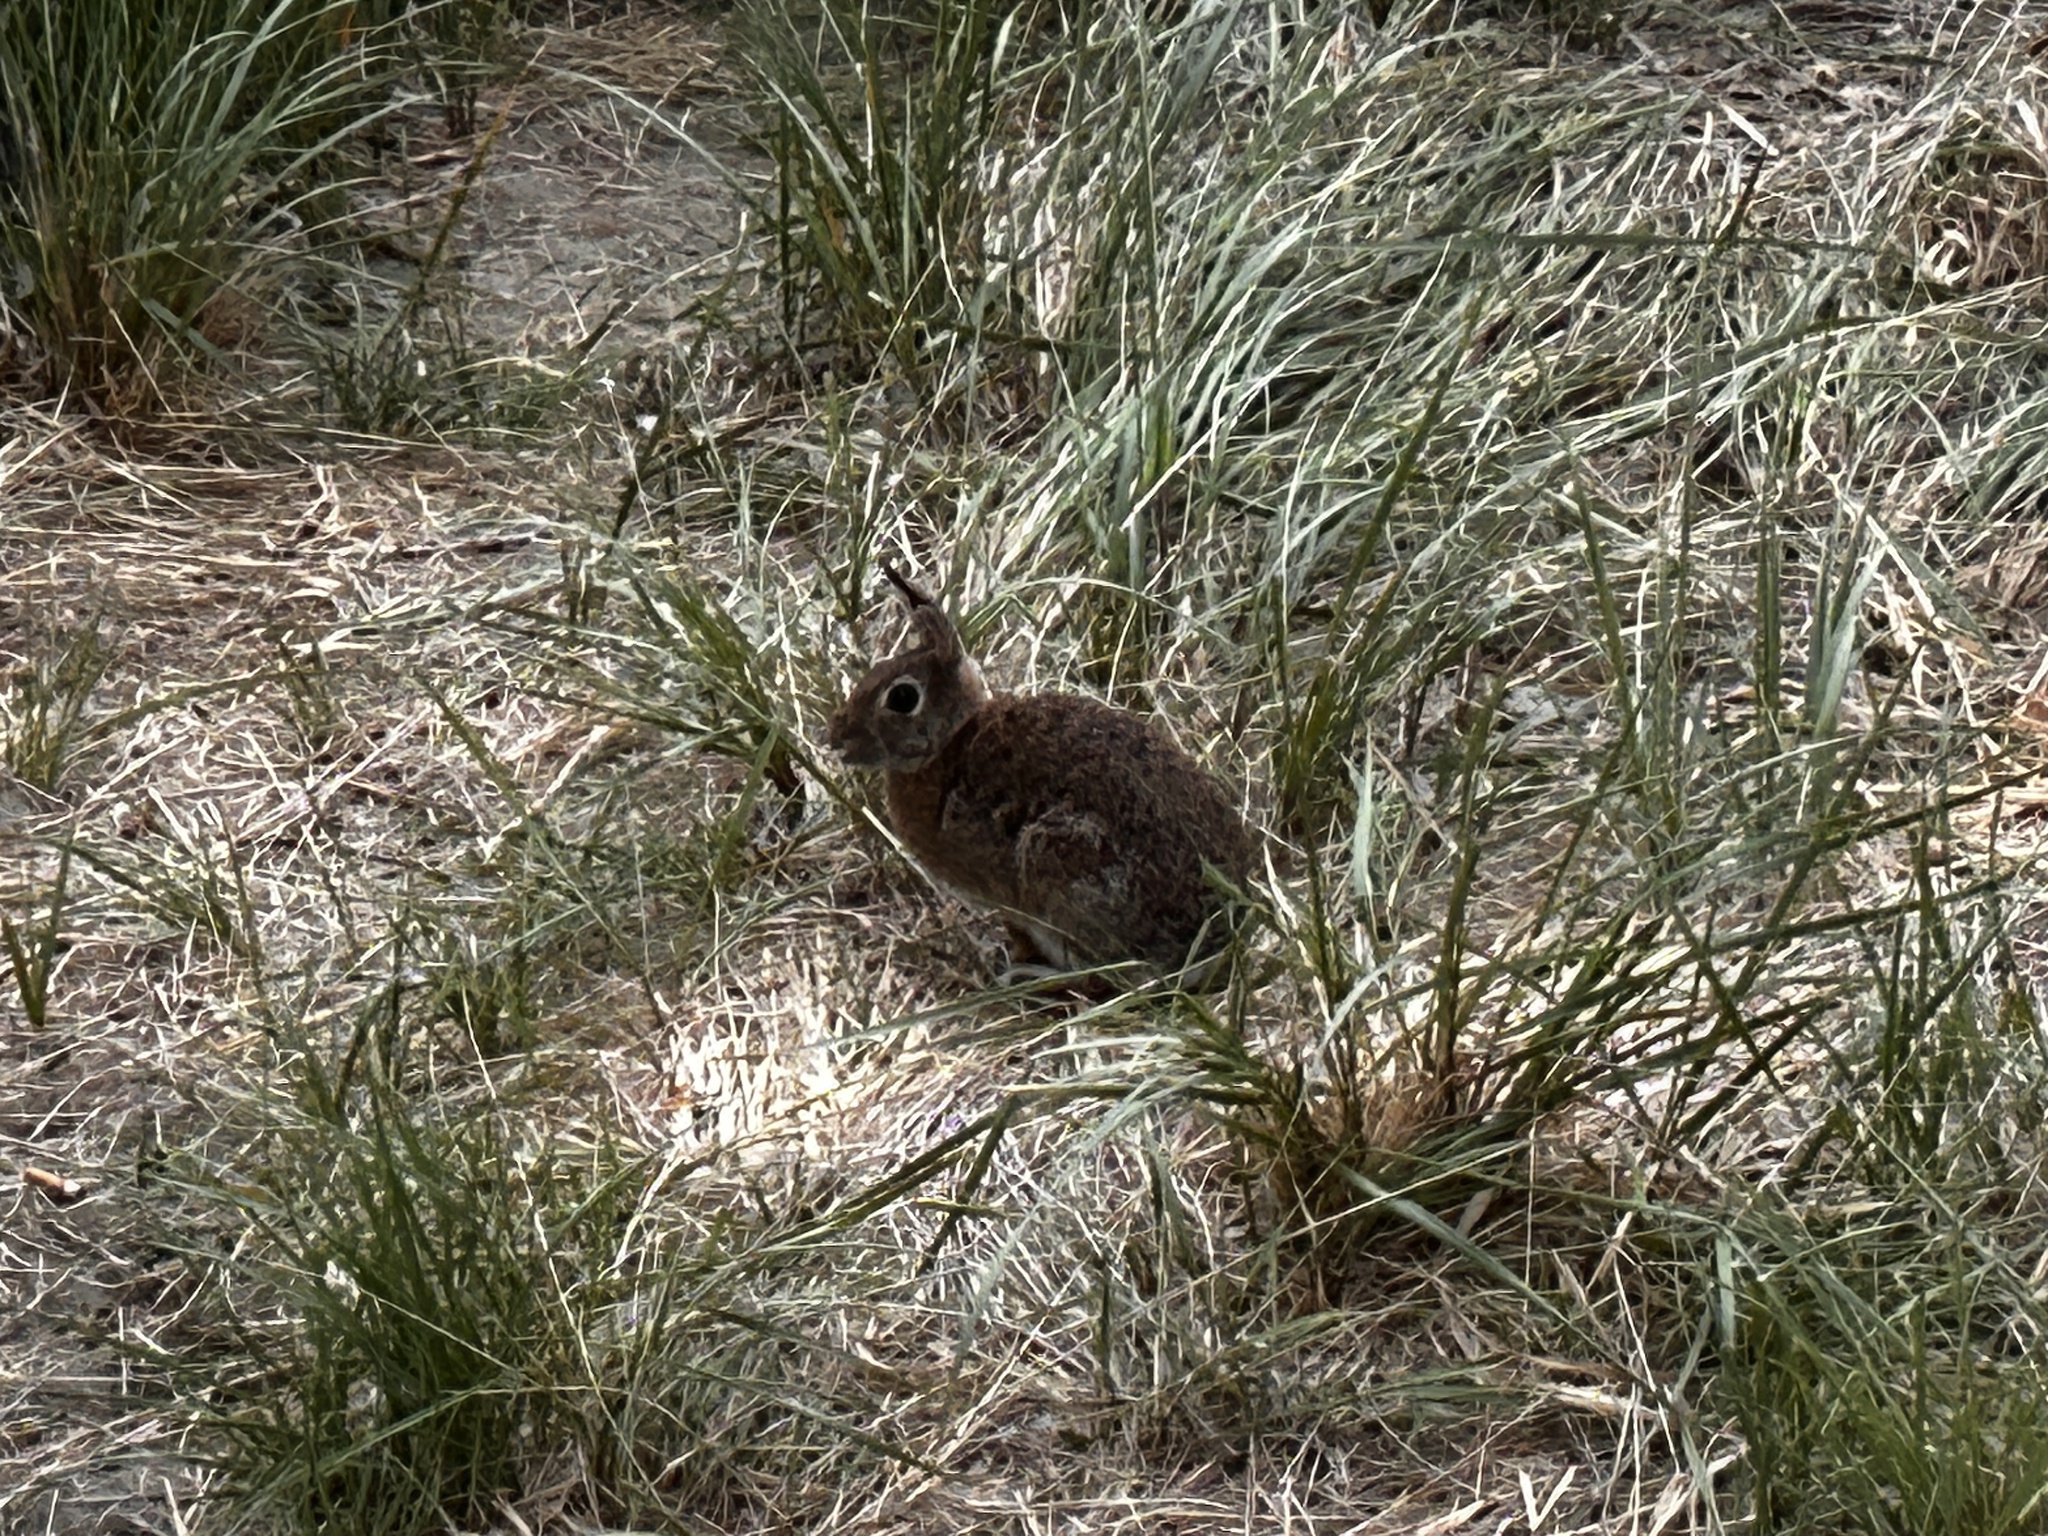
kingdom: Animalia
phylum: Chordata
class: Mammalia
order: Lagomorpha
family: Leporidae
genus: Sylvilagus
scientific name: Sylvilagus floridanus
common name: Eastern cottontail
